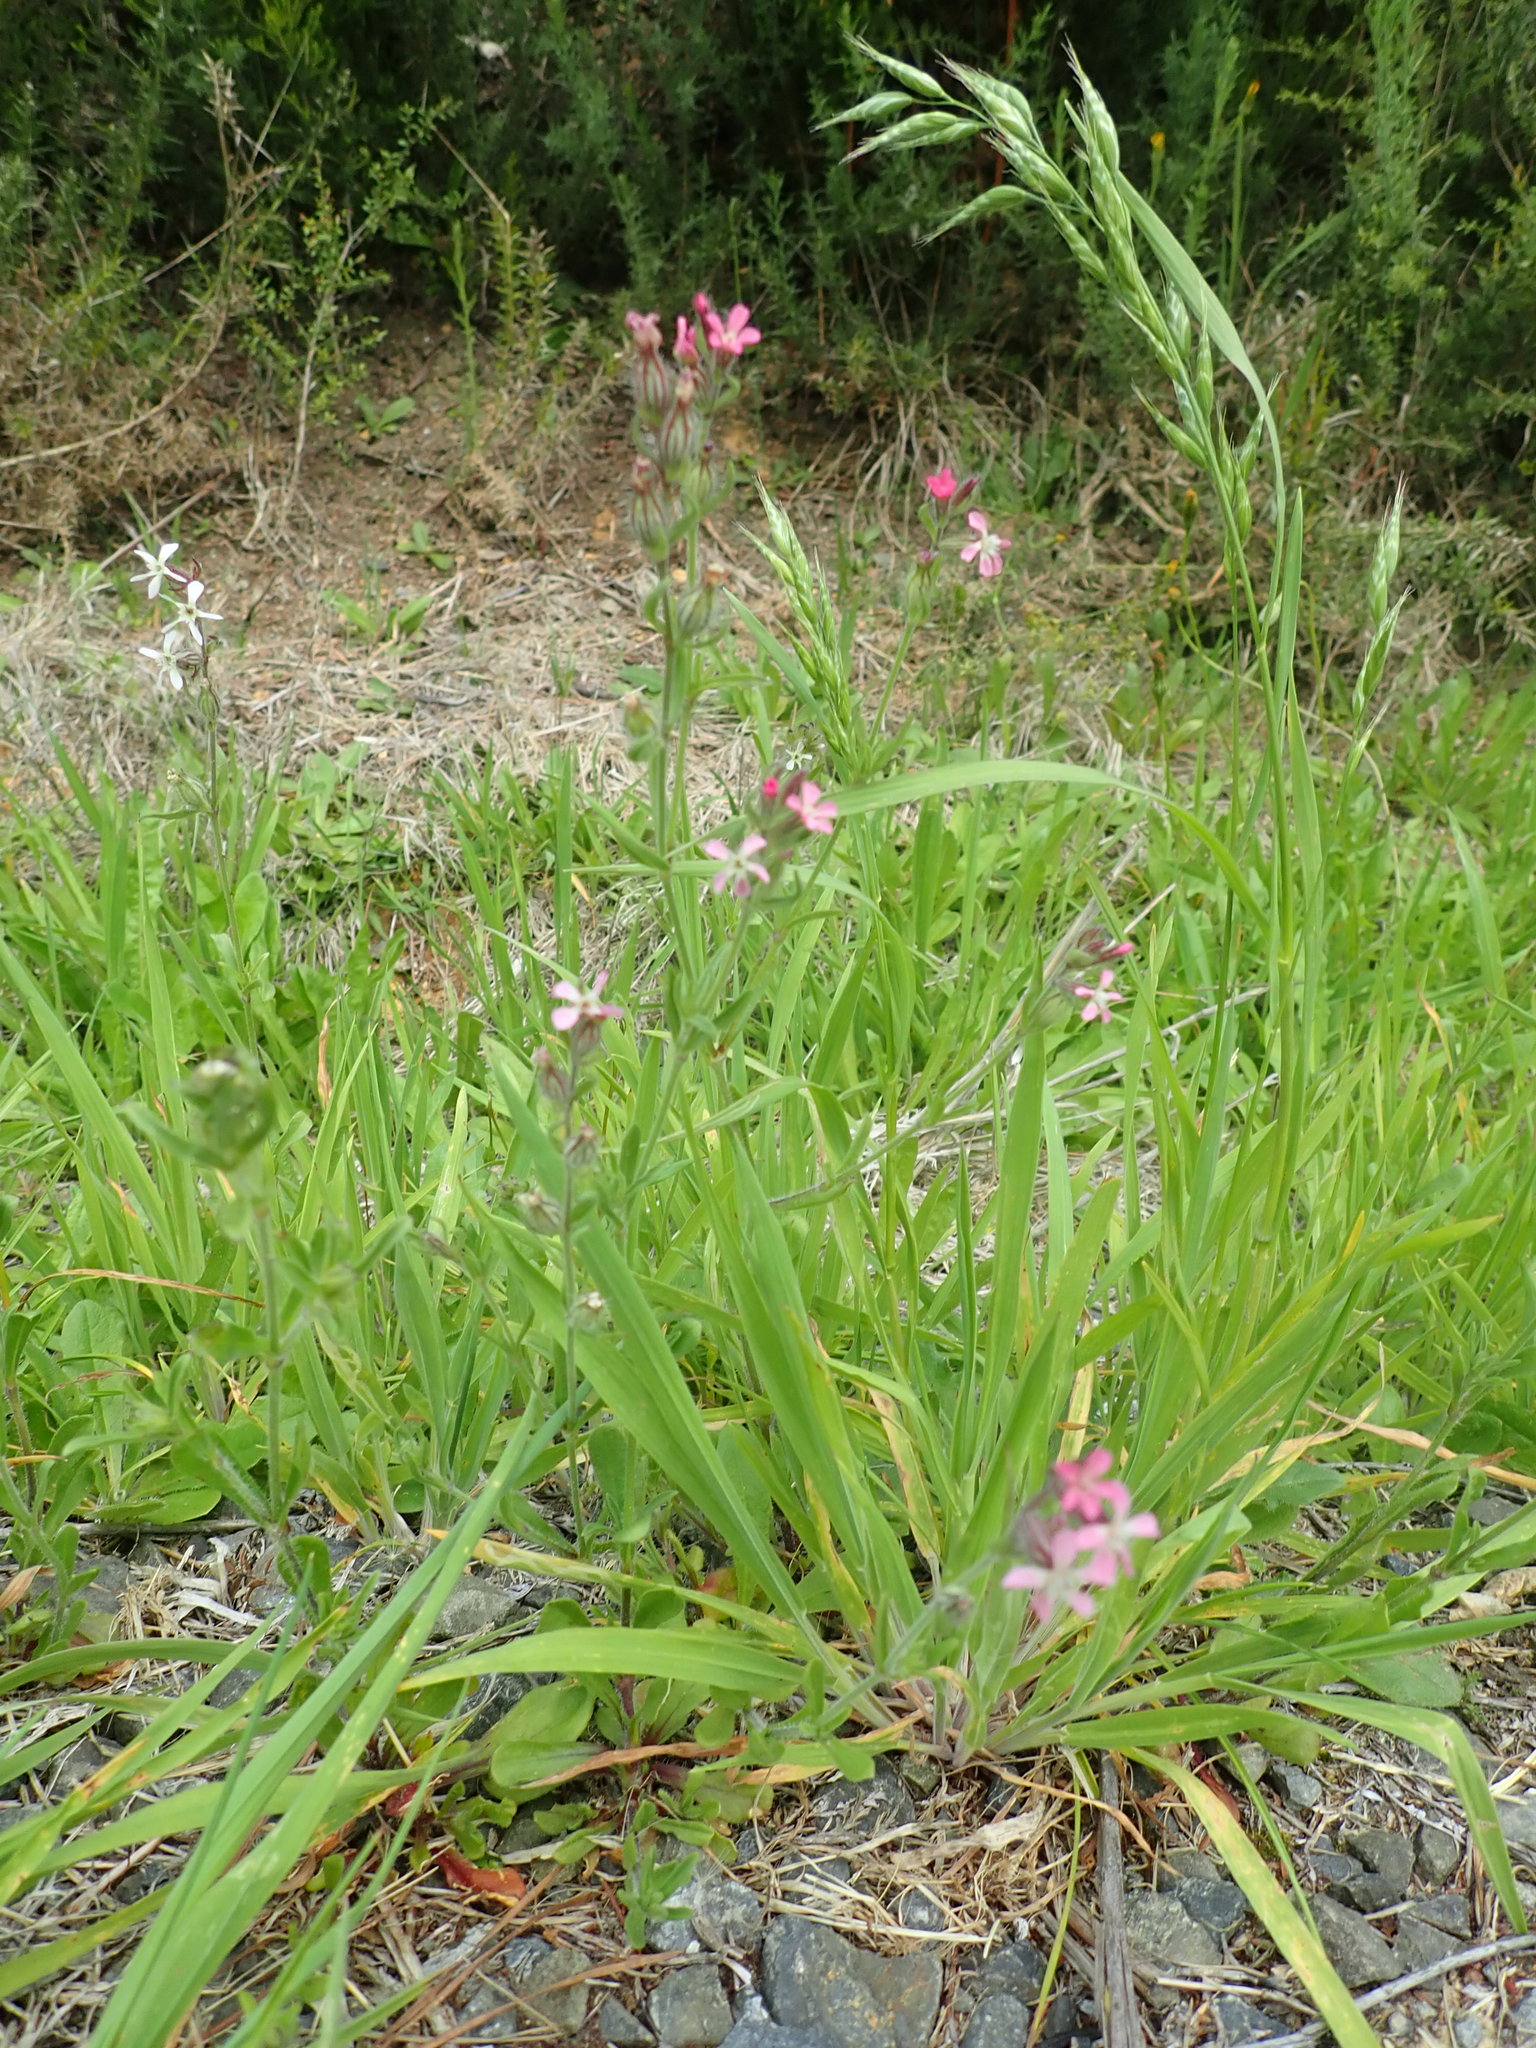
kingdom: Plantae
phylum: Tracheophyta
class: Magnoliopsida
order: Caryophyllales
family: Caryophyllaceae
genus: Silene
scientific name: Silene gallica
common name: Small-flowered catchfly
